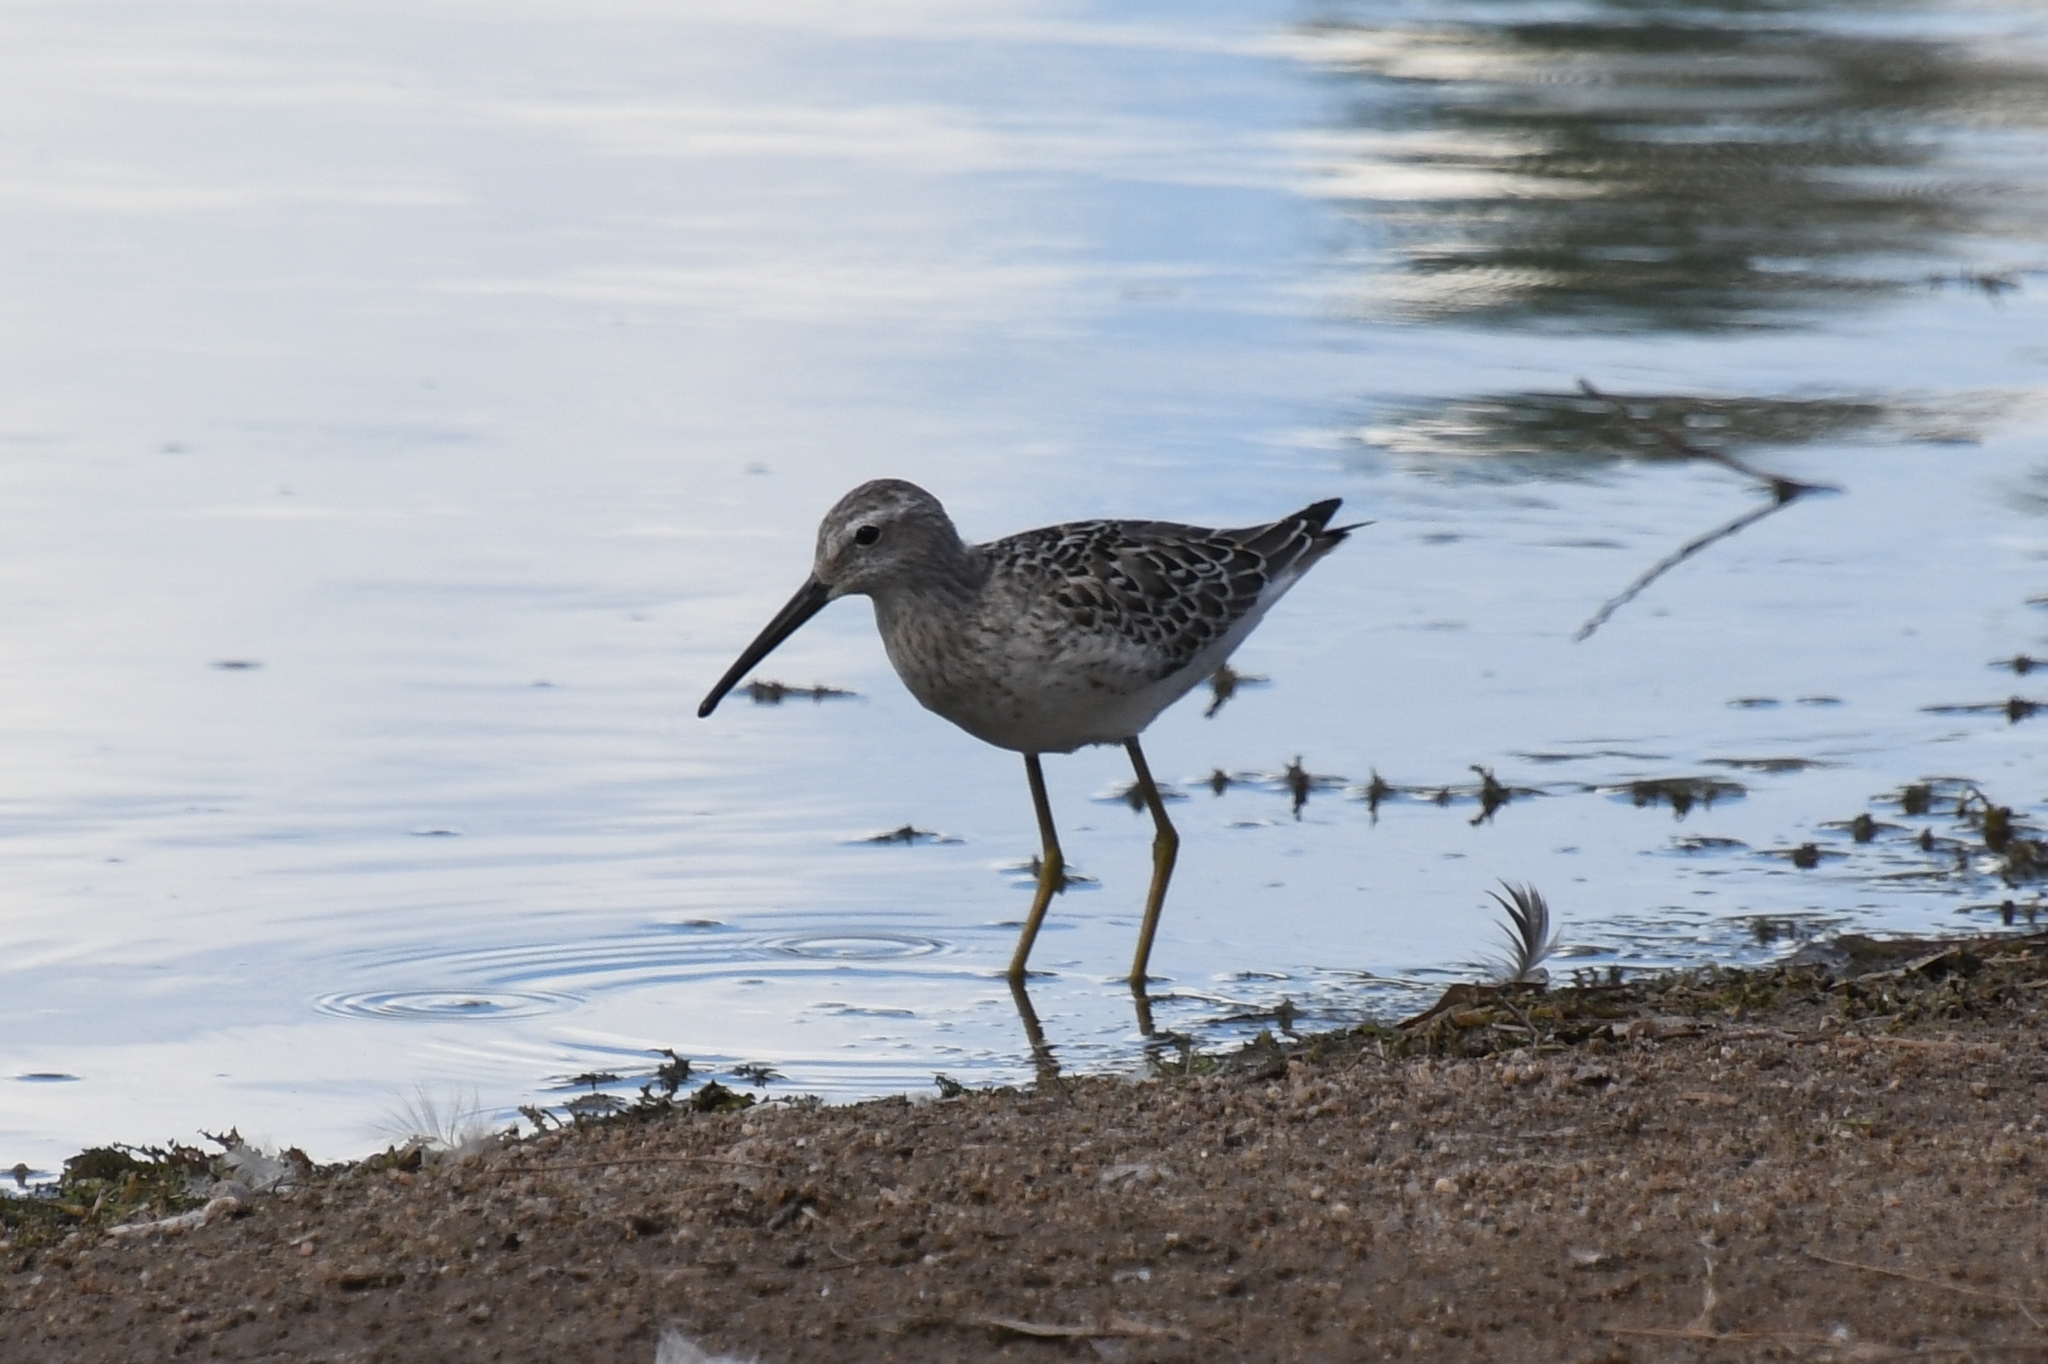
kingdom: Animalia
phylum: Chordata
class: Aves
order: Charadriiformes
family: Scolopacidae
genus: Calidris
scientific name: Calidris himantopus
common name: Stilt sandpiper
